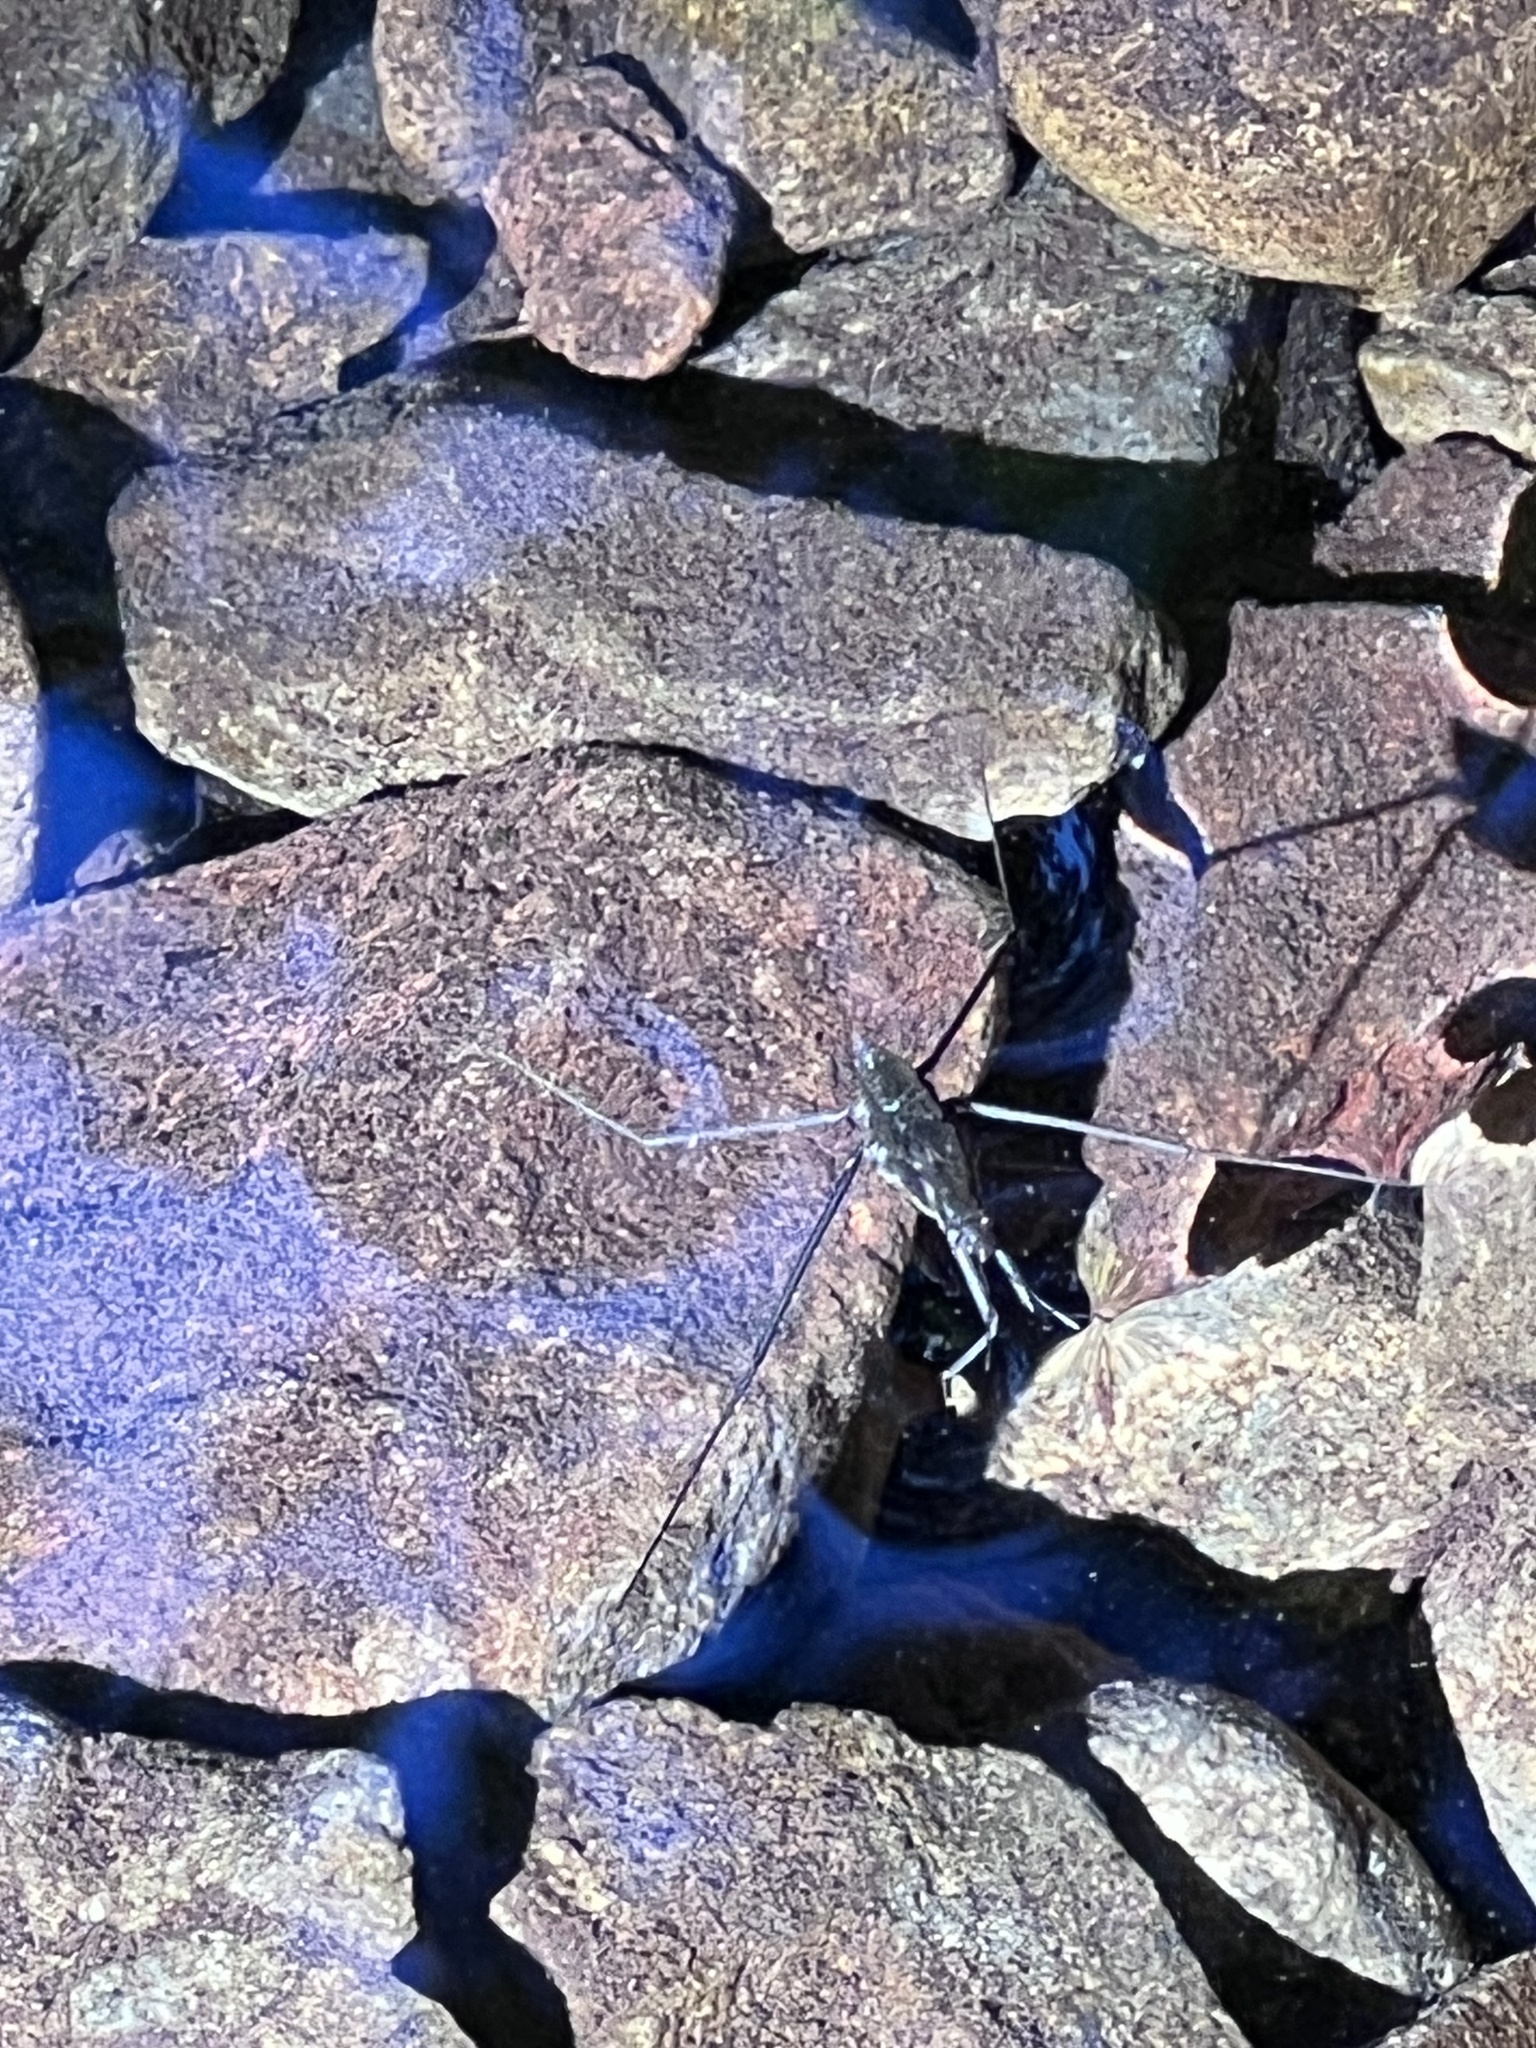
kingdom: Animalia
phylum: Arthropoda
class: Insecta
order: Hemiptera
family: Gerridae
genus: Aquarius
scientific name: Aquarius remigis
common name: Common water strider
